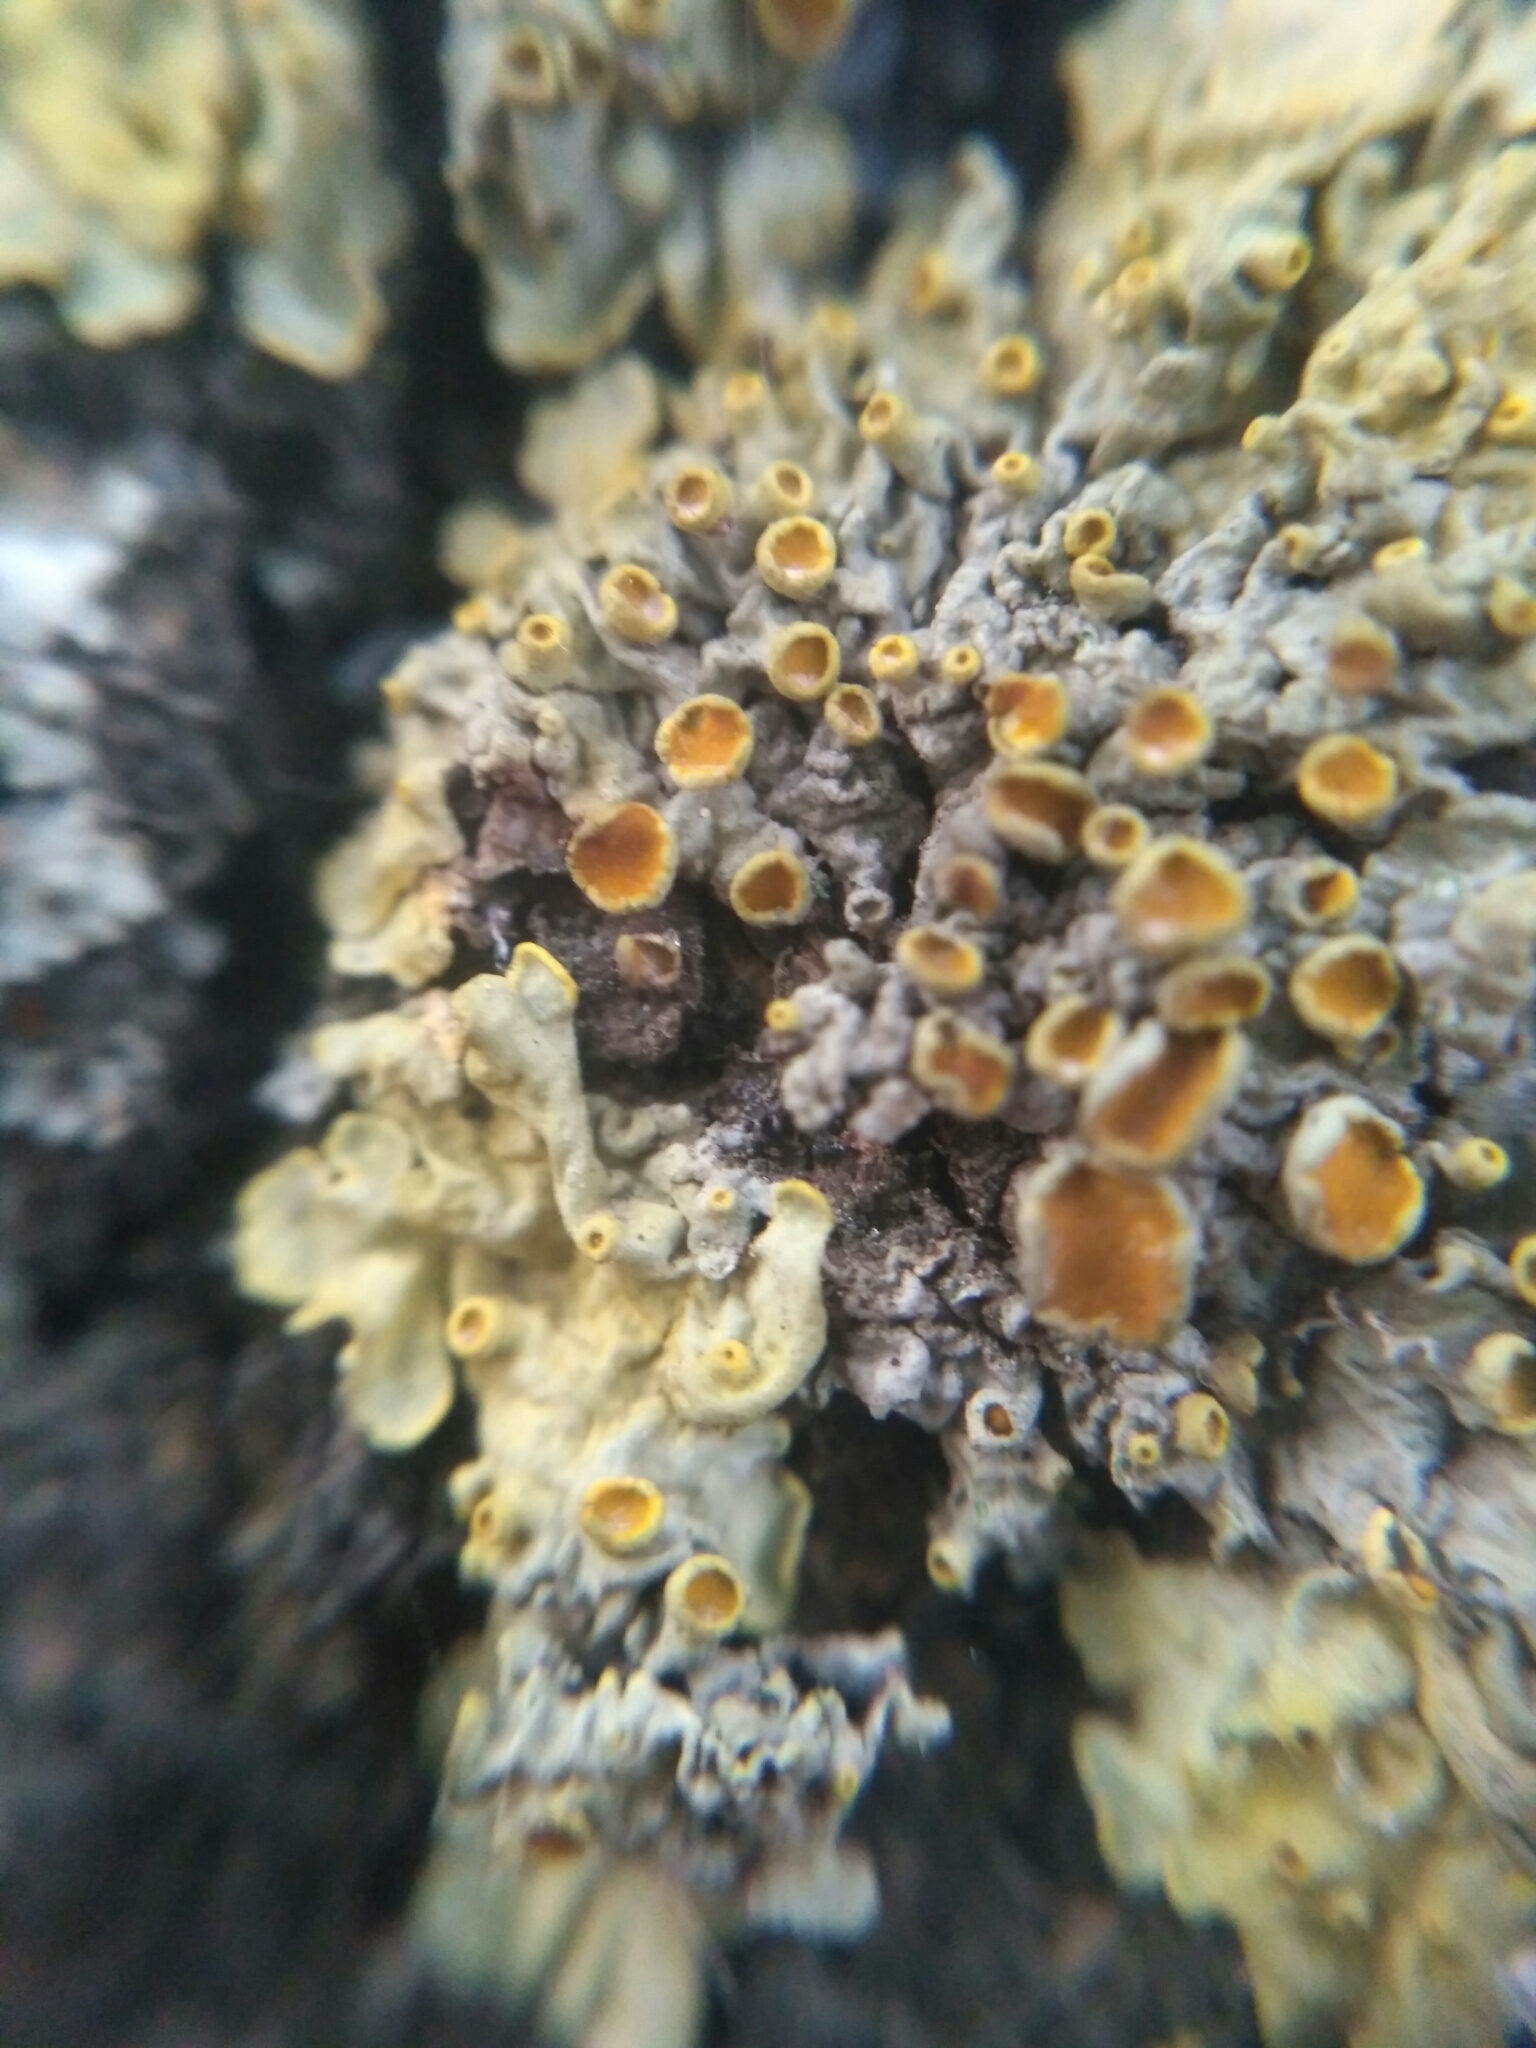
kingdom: Fungi
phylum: Ascomycota
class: Lecanoromycetes
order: Teloschistales
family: Teloschistaceae
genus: Xanthoria
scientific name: Xanthoria parietina
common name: Common orange lichen
